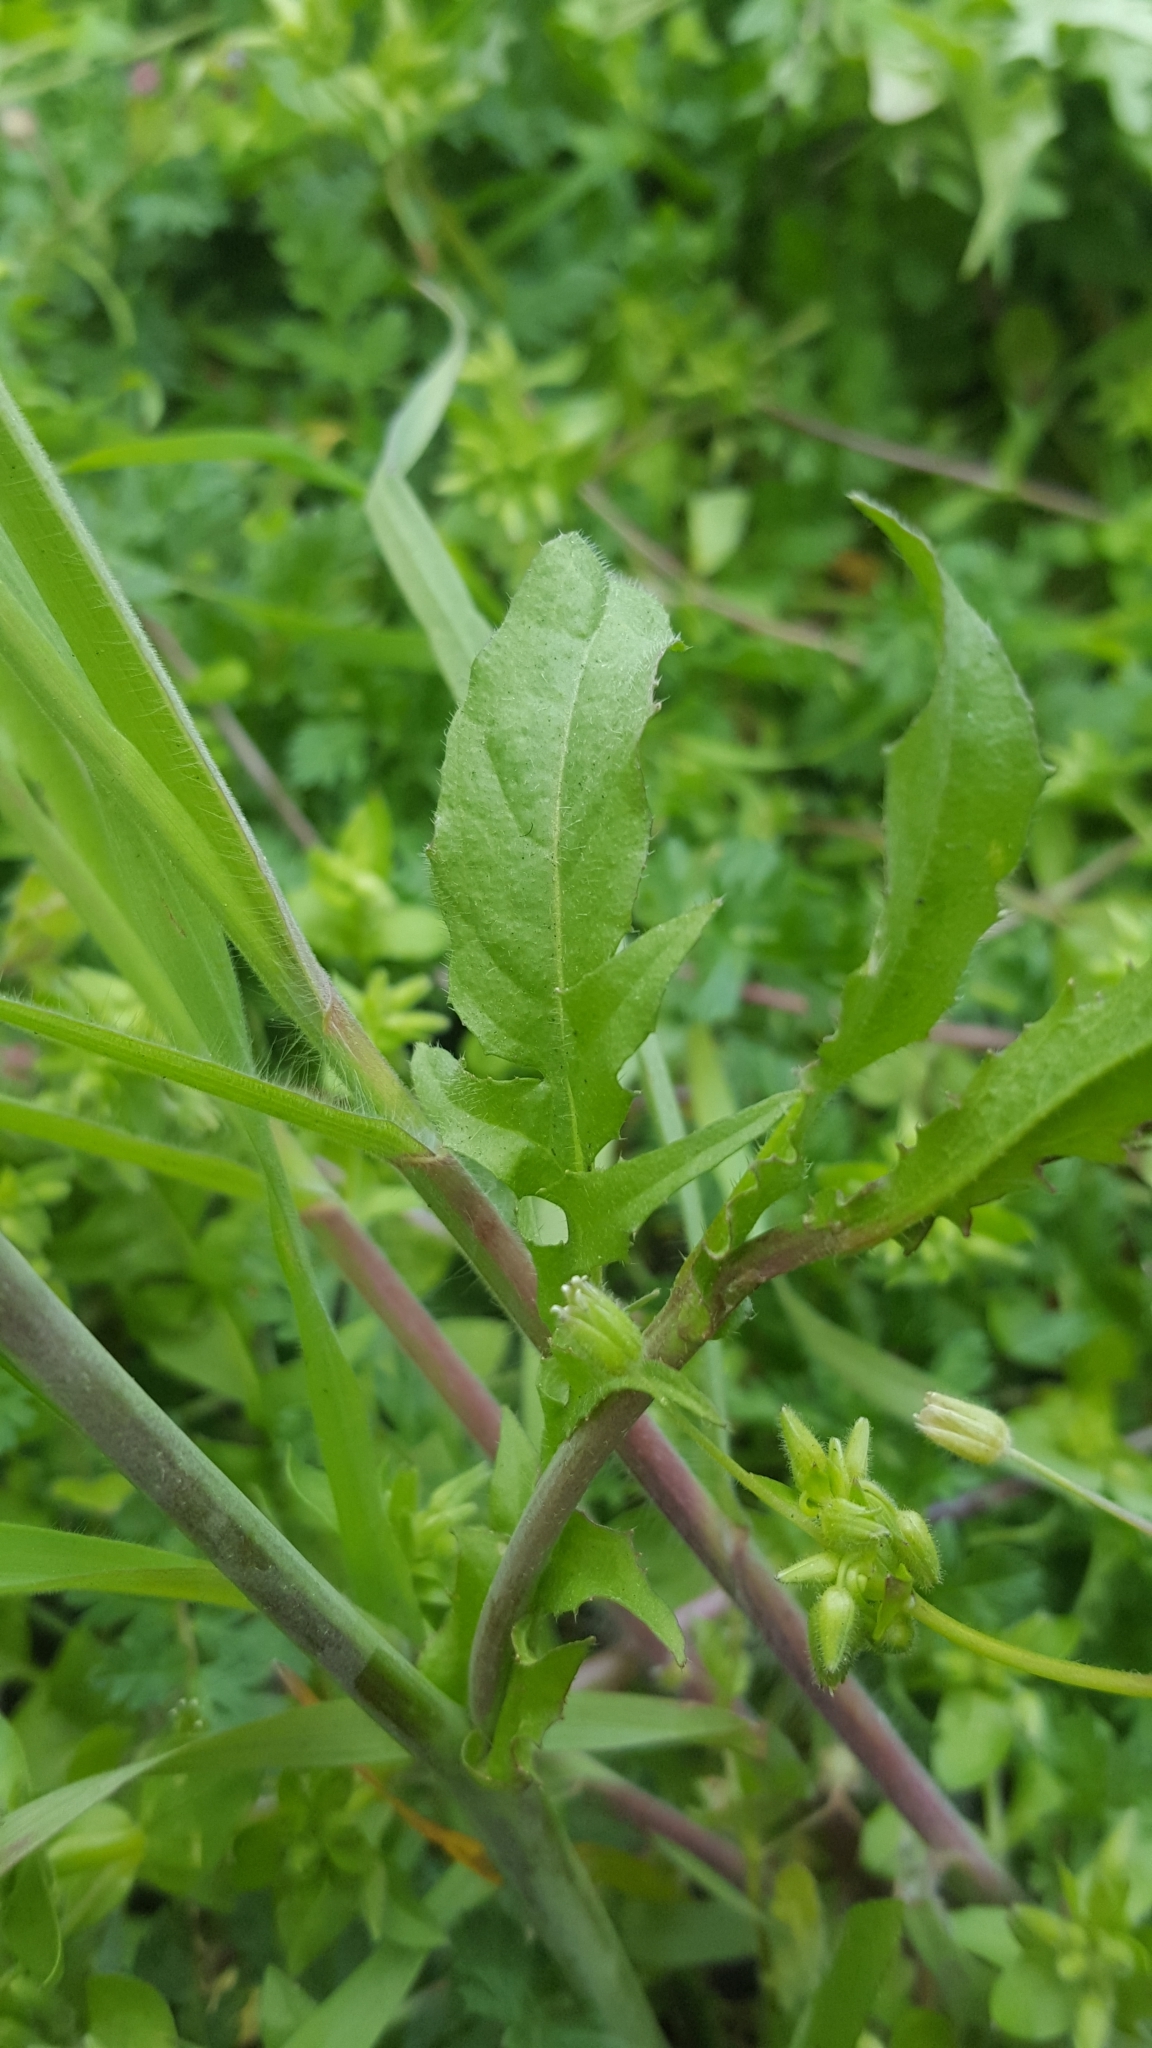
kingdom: Plantae
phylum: Tracheophyta
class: Magnoliopsida
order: Brassicales
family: Brassicaceae
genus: Arabidopsis
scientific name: Arabidopsis thaliana
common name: Thale cress
